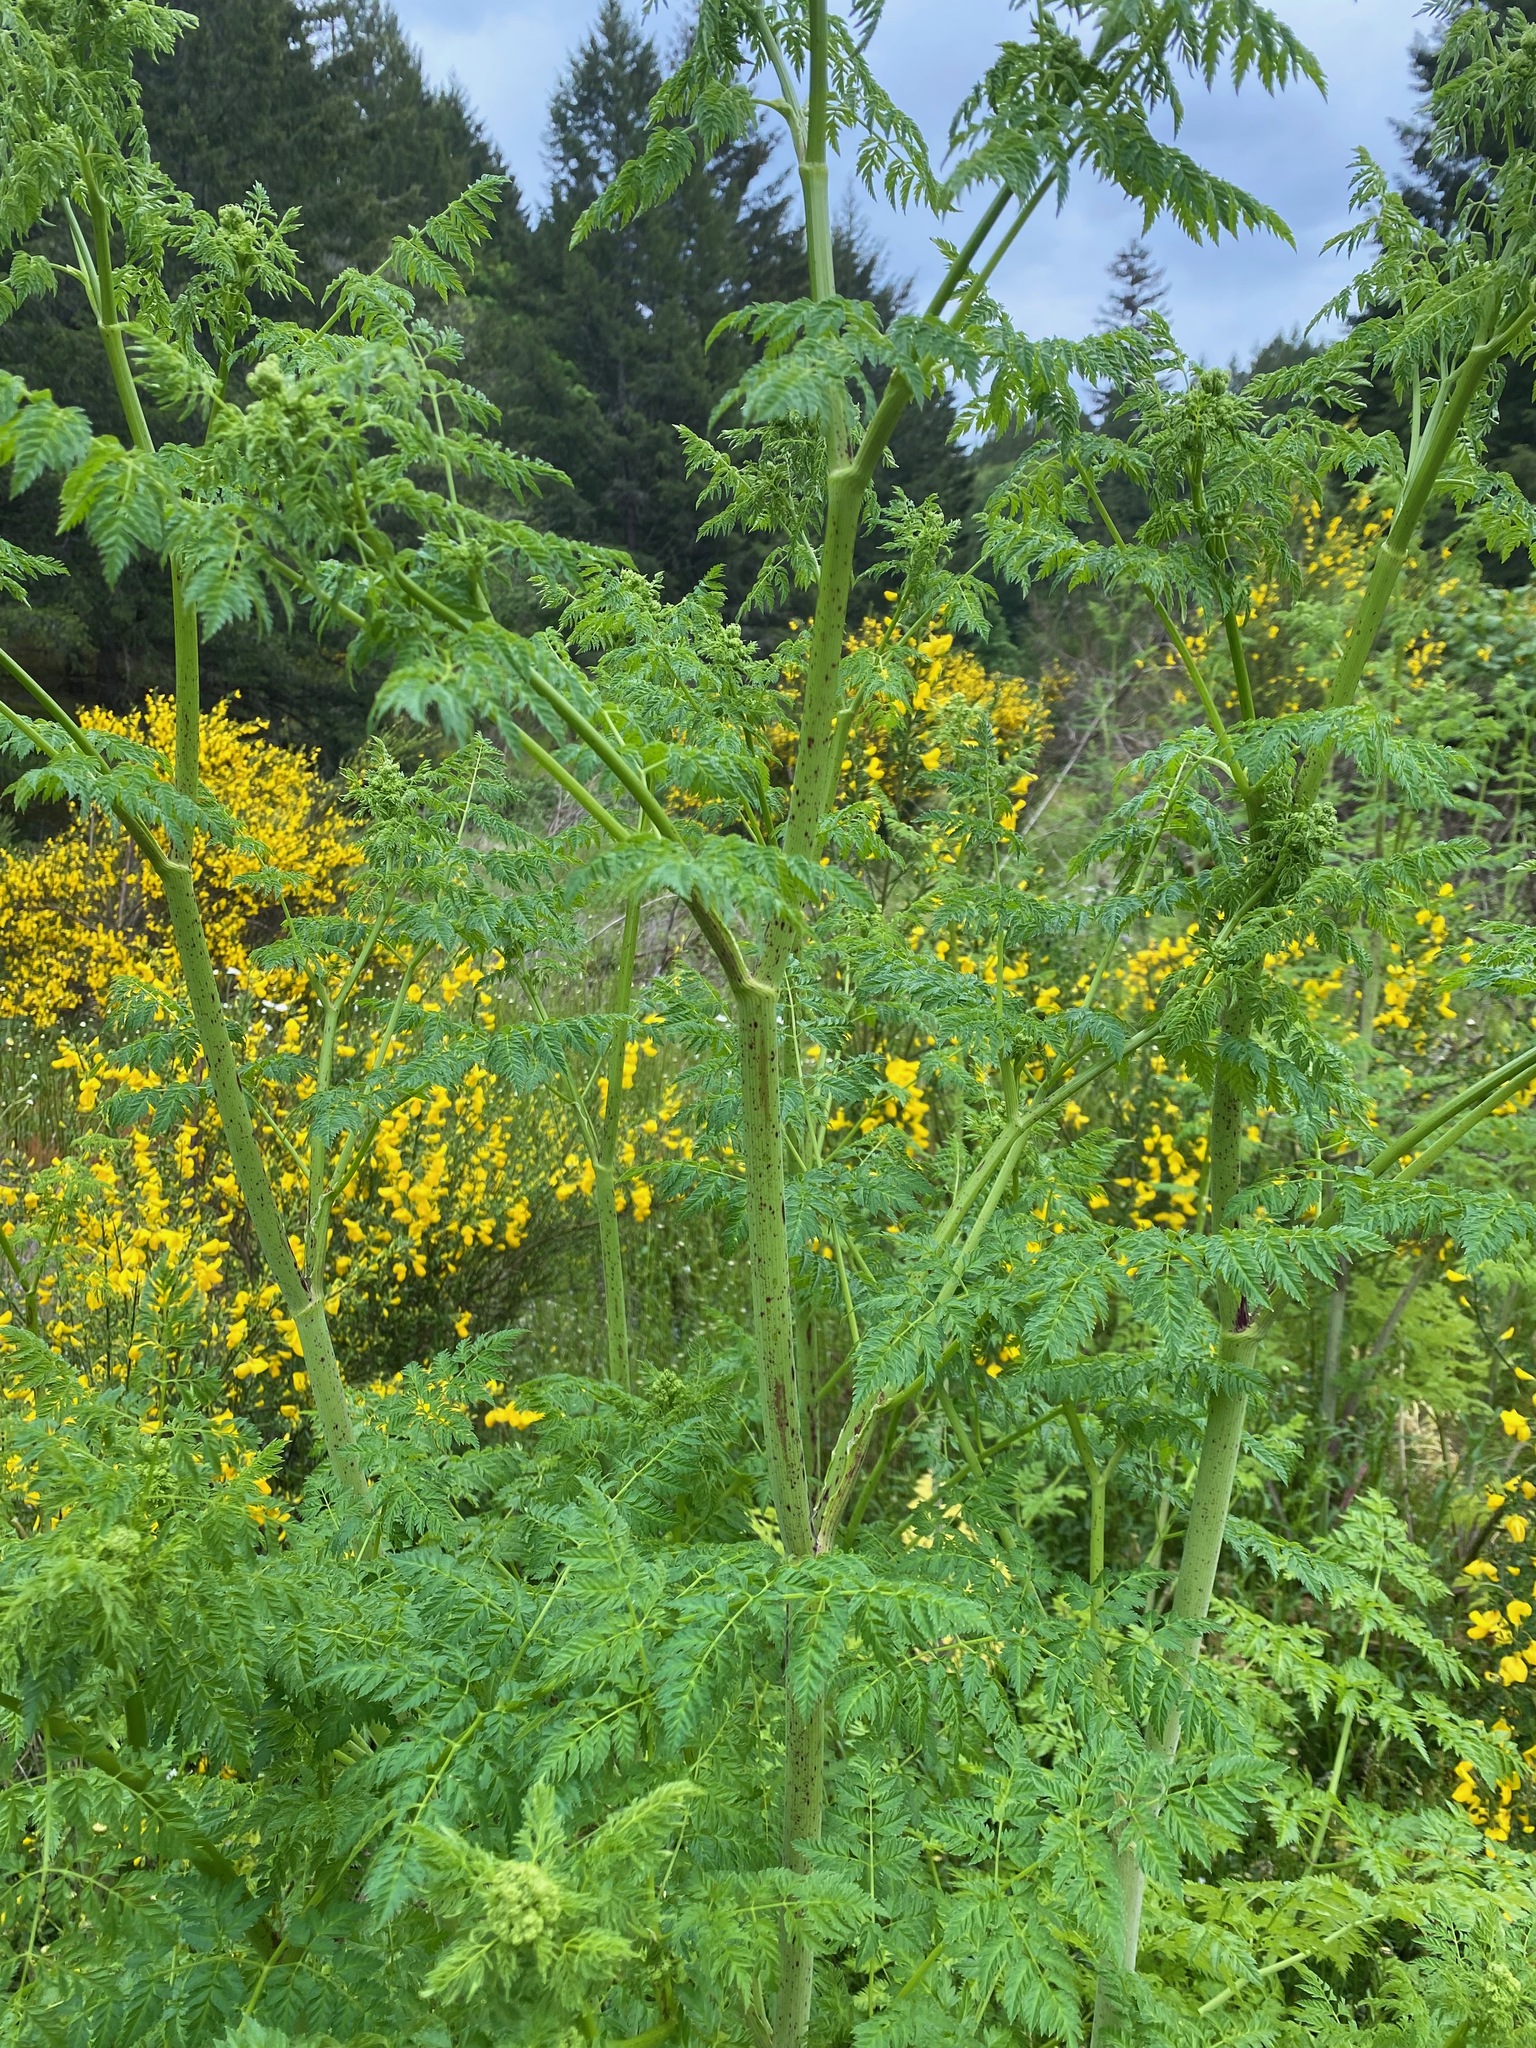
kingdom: Plantae
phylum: Tracheophyta
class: Magnoliopsida
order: Apiales
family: Apiaceae
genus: Conium
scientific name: Conium maculatum
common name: Hemlock
